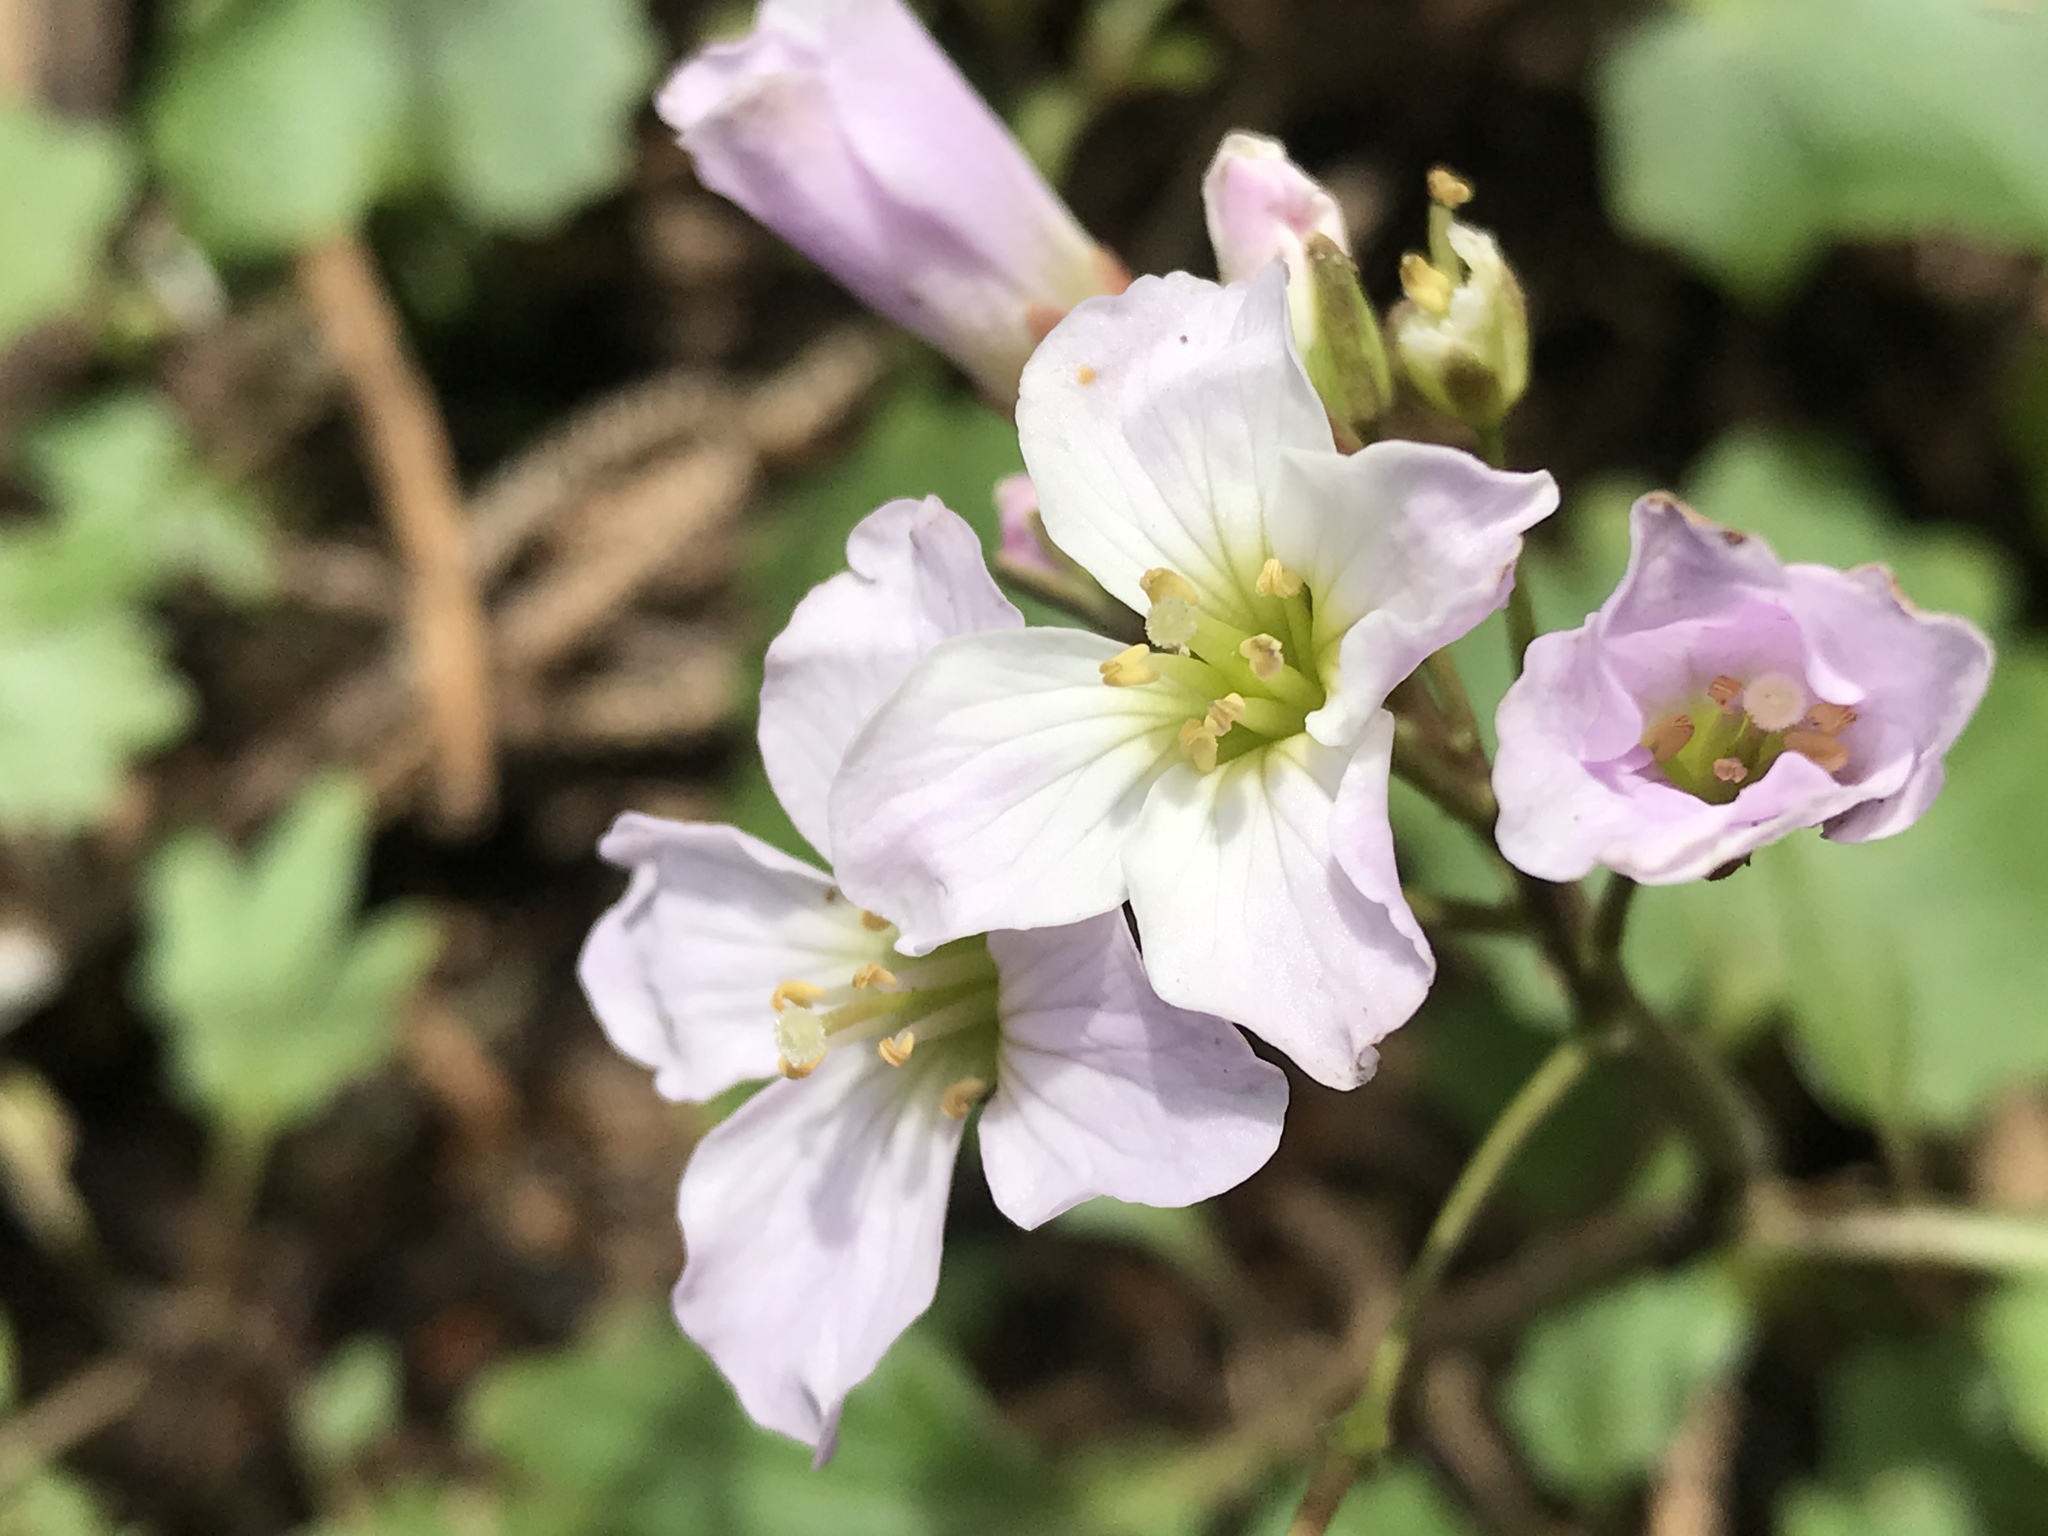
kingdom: Plantae
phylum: Tracheophyta
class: Magnoliopsida
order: Brassicales
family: Brassicaceae
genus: Cardamine
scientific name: Cardamine nuttallii
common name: Nuttall's toothwort
